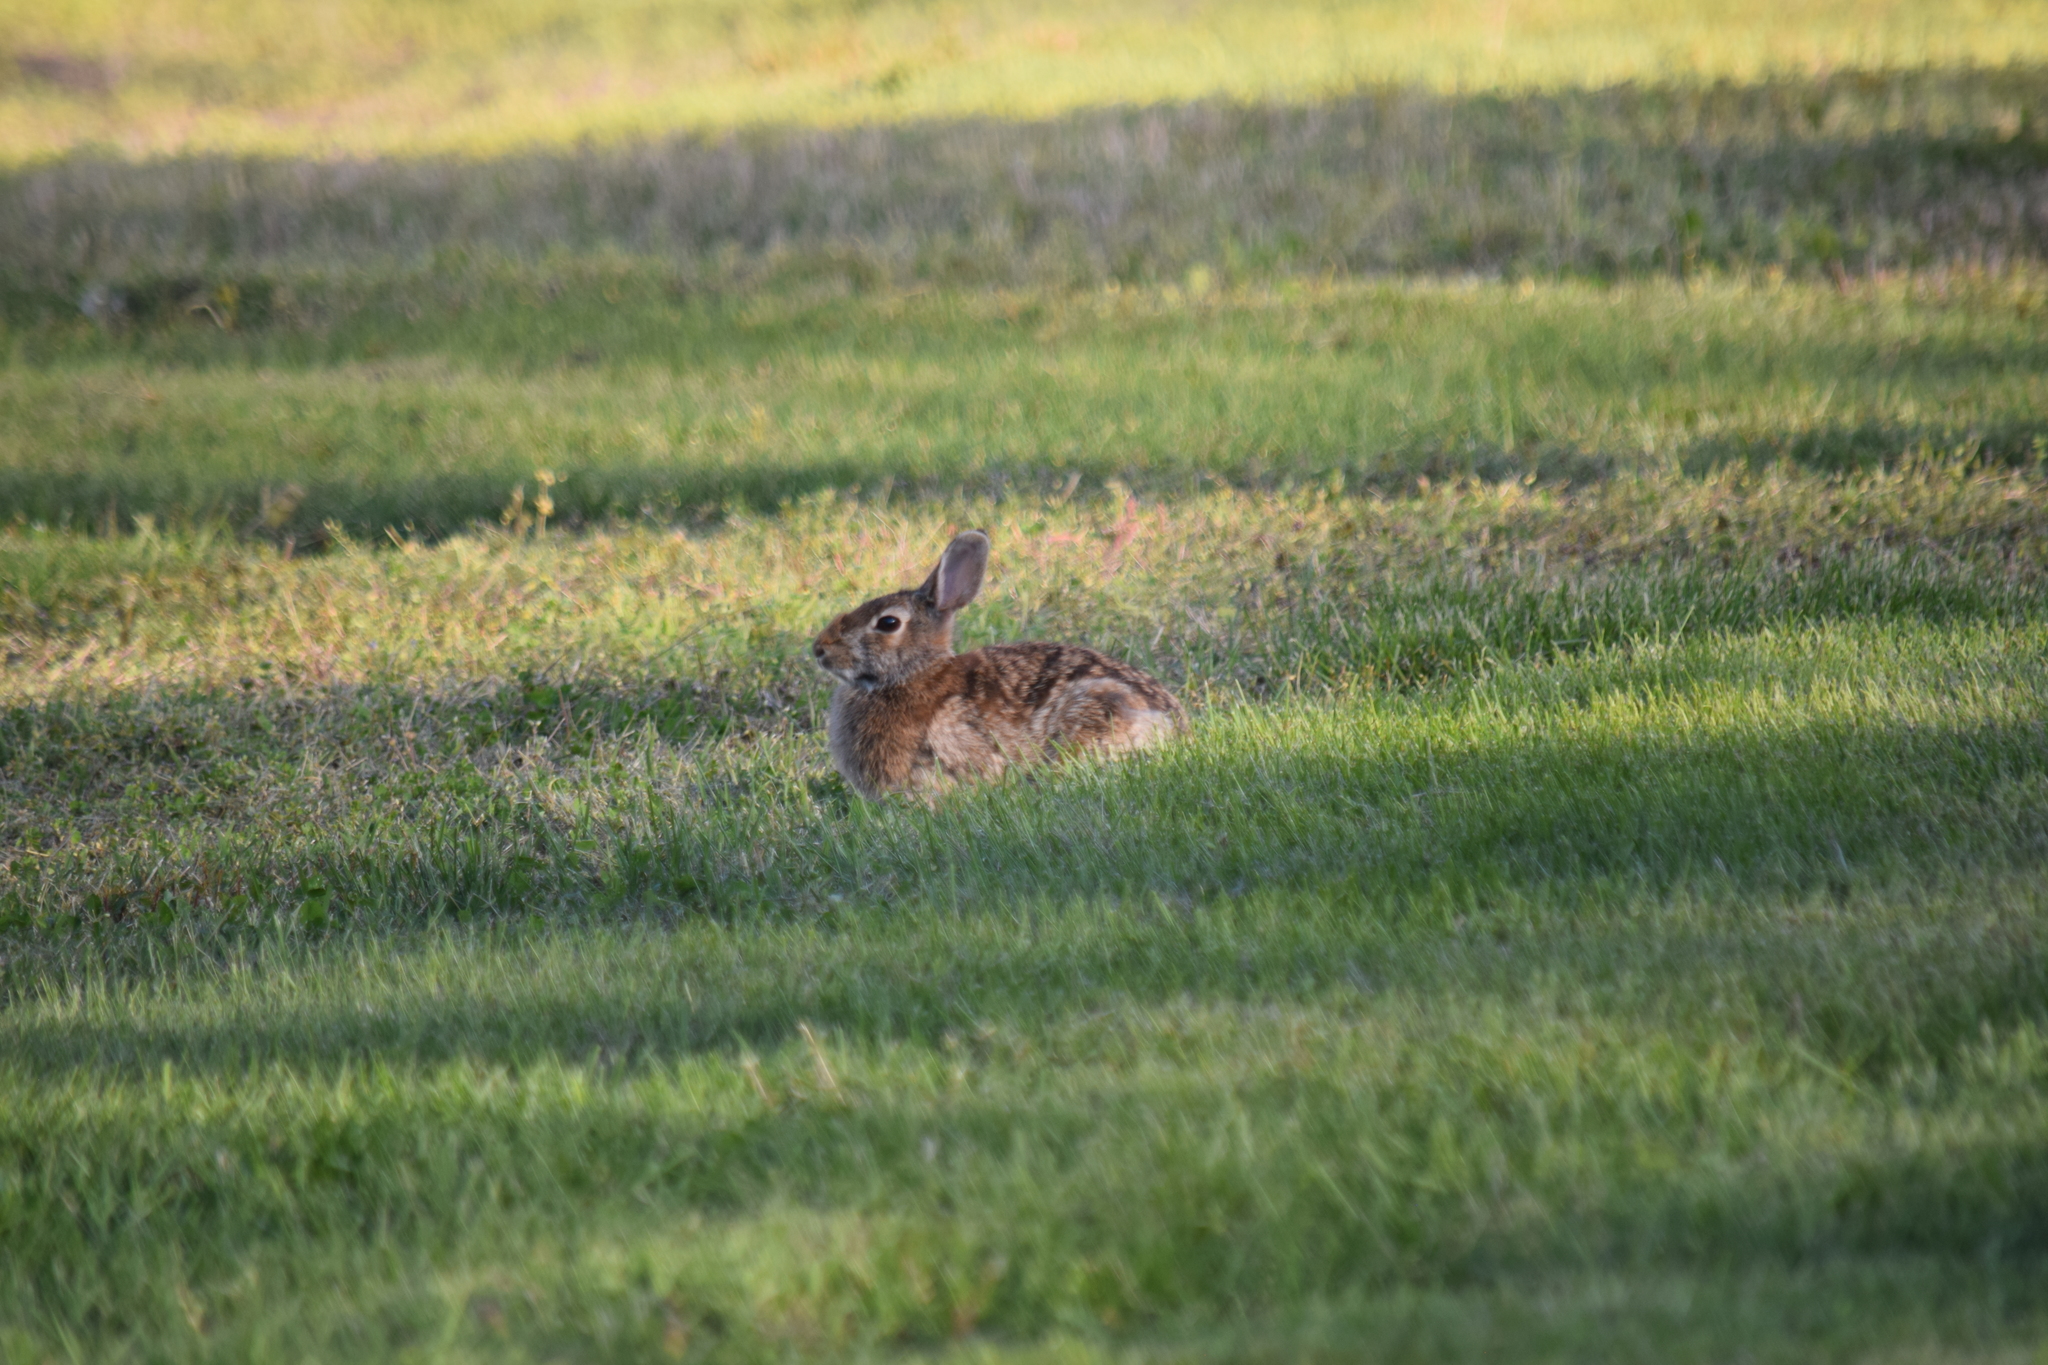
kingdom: Animalia
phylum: Chordata
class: Mammalia
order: Lagomorpha
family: Leporidae
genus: Sylvilagus
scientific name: Sylvilagus floridanus
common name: Eastern cottontail
